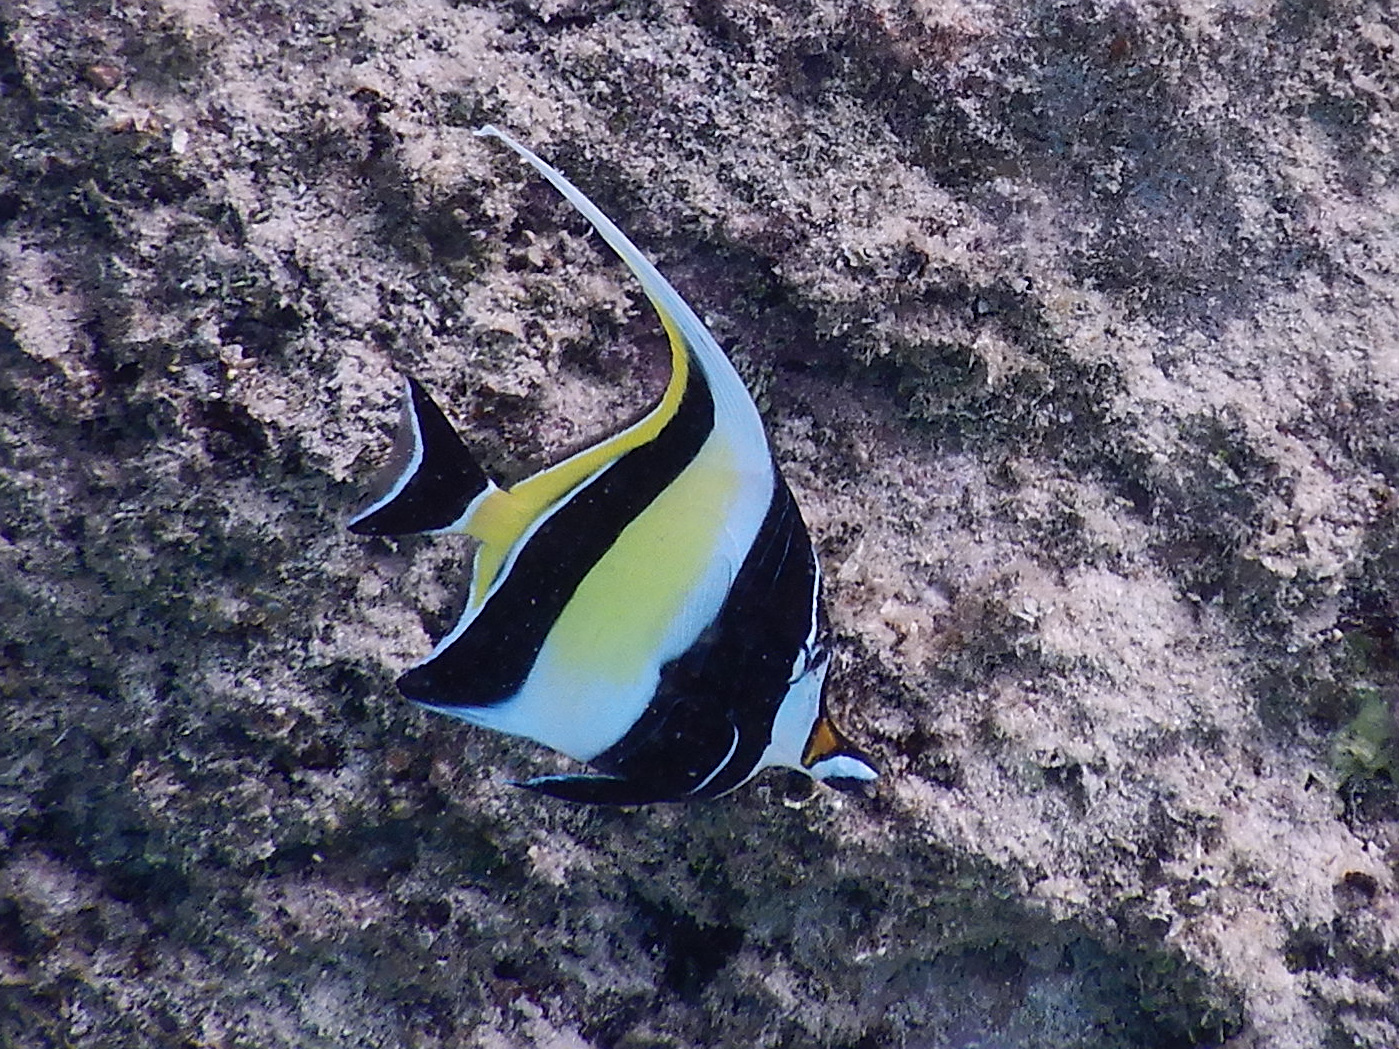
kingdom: Animalia
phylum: Chordata
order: Perciformes
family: Zanclidae
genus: Zanclus
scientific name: Zanclus cornutus
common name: Moorish idol
